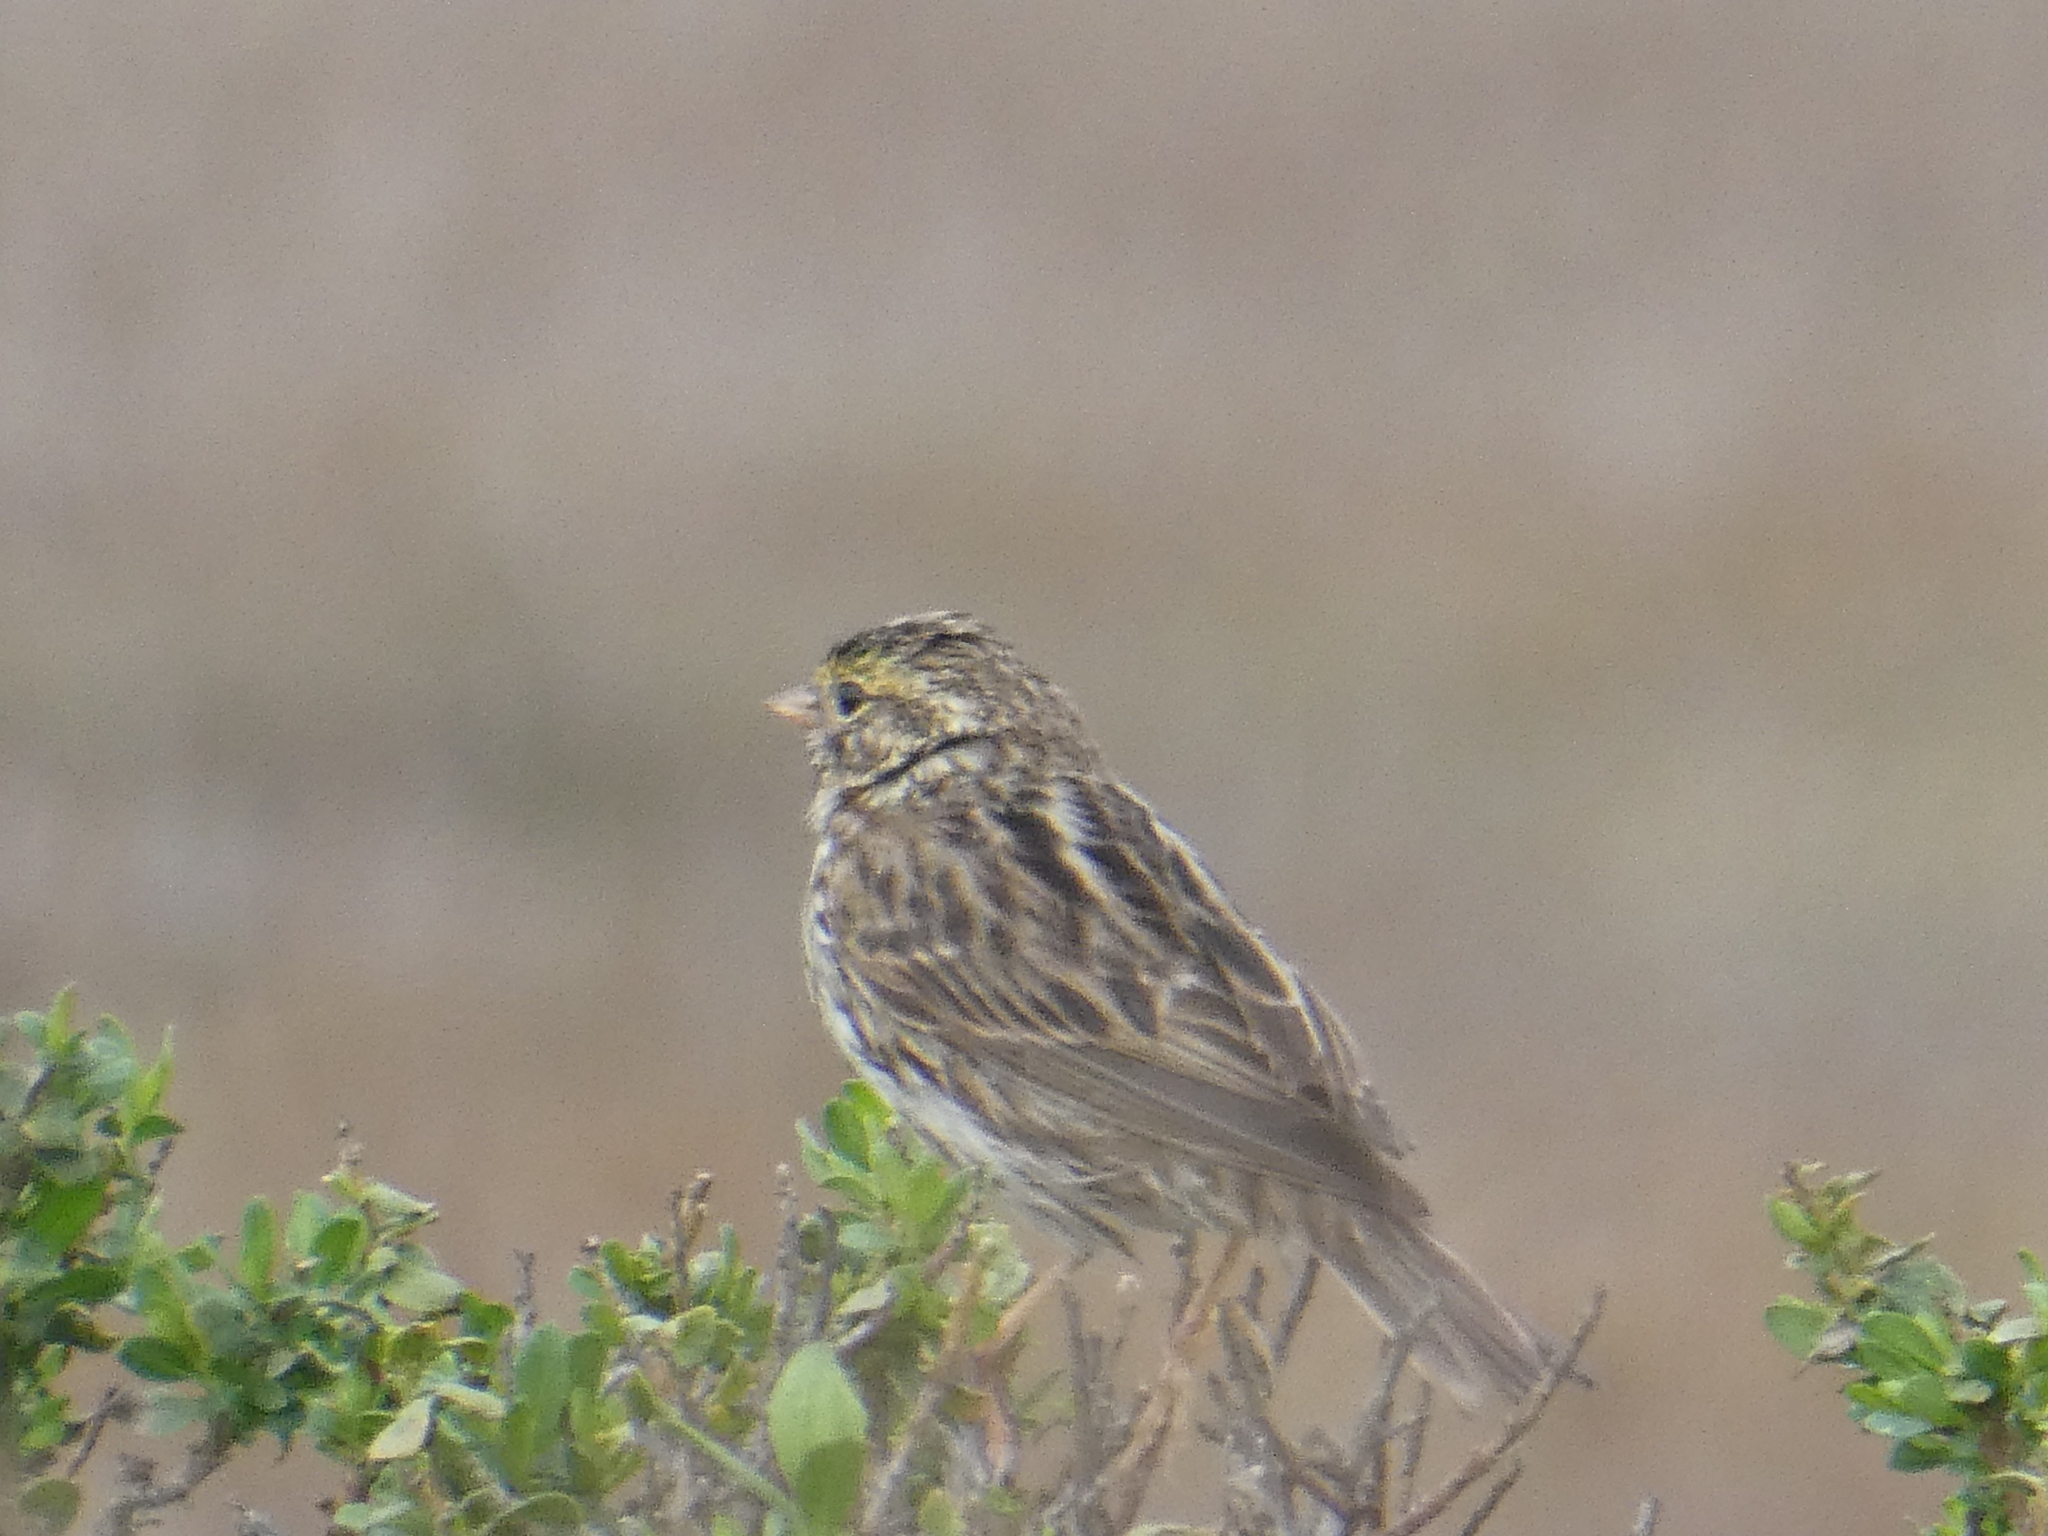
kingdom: Animalia
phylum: Chordata
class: Aves
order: Passeriformes
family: Passerellidae
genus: Passerculus
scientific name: Passerculus sandwichensis
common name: Savannah sparrow
